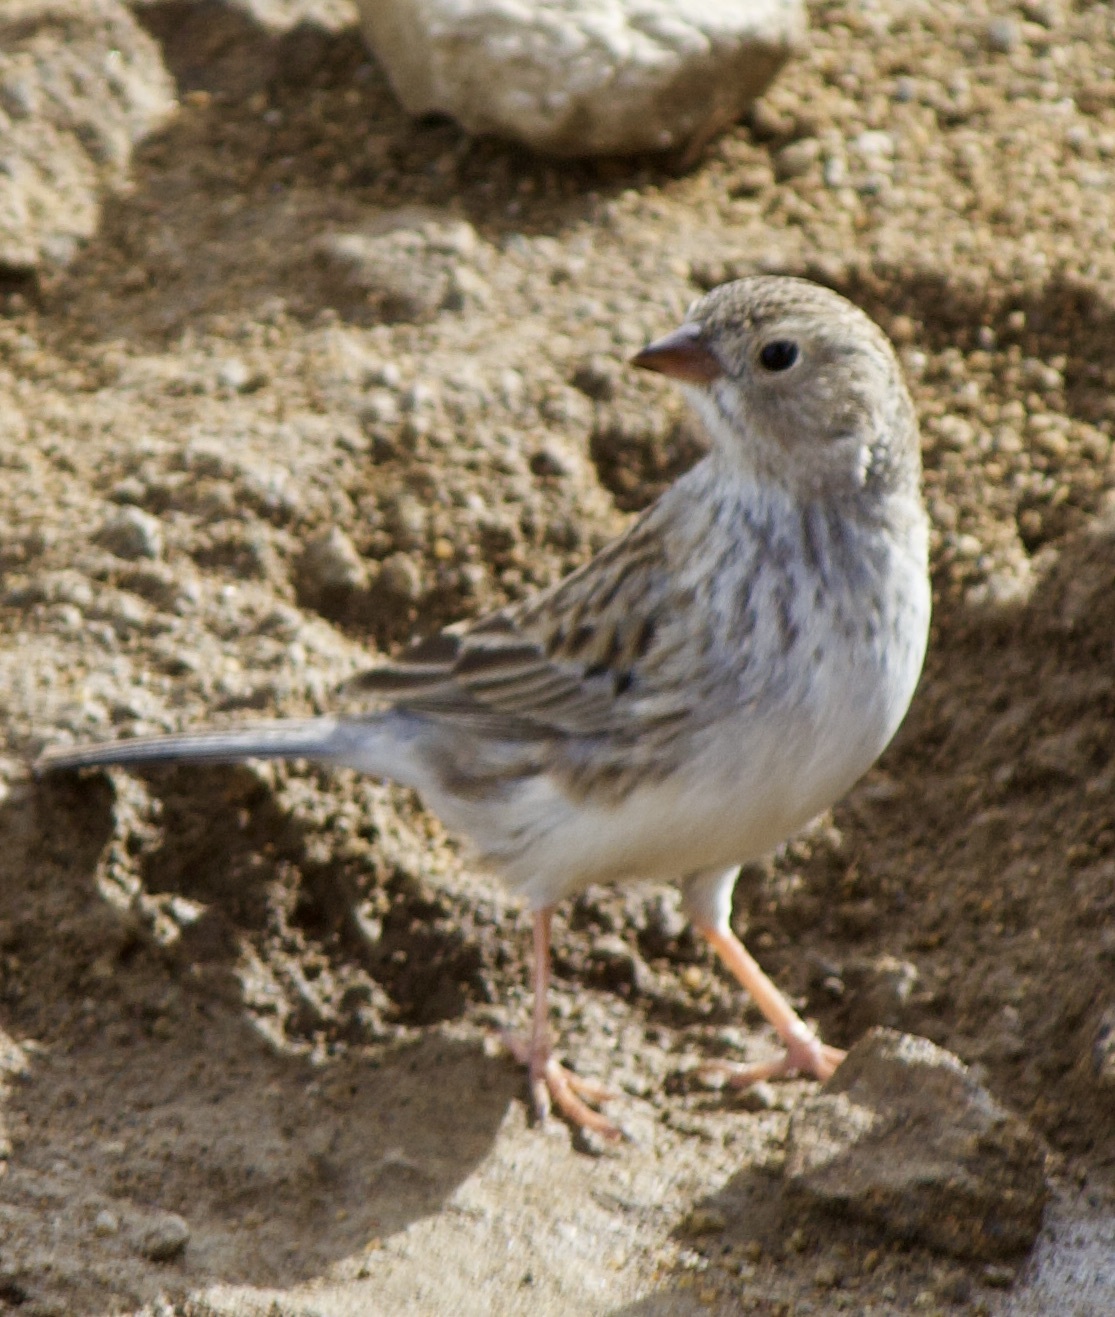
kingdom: Animalia
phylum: Chordata
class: Aves
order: Passeriformes
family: Thraupidae
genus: Porphyrospiza
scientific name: Porphyrospiza alaudina
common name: Band-tailed sierra finch
